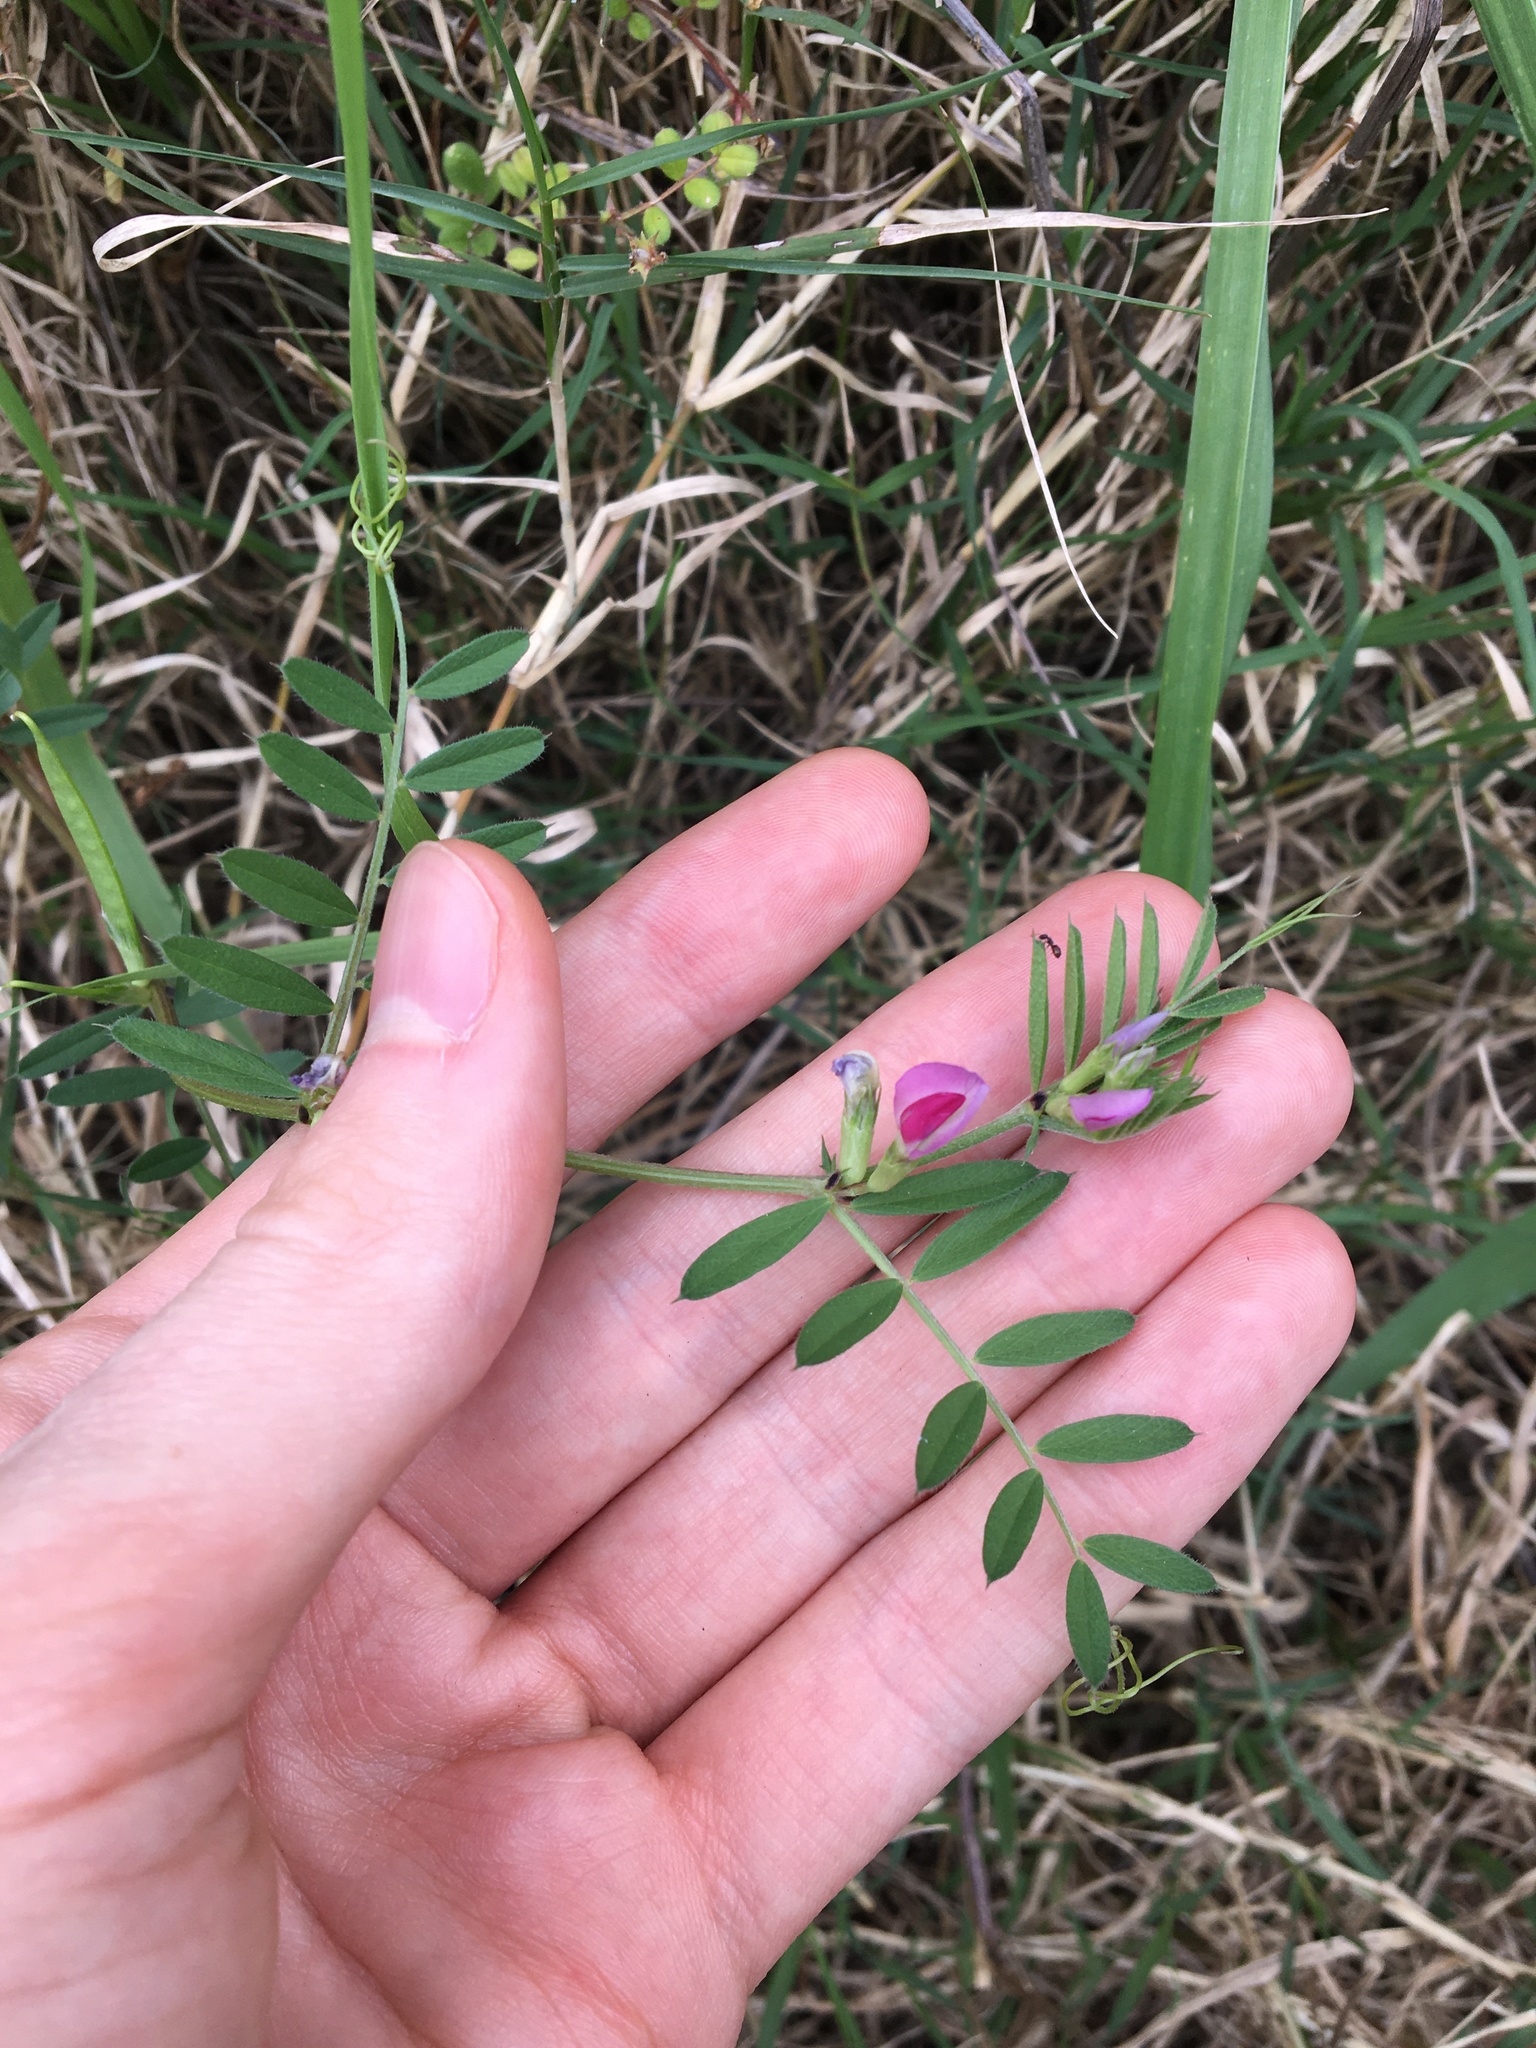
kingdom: Plantae
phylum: Tracheophyta
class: Magnoliopsida
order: Fabales
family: Fabaceae
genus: Vicia
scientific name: Vicia sativa
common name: Garden vetch
